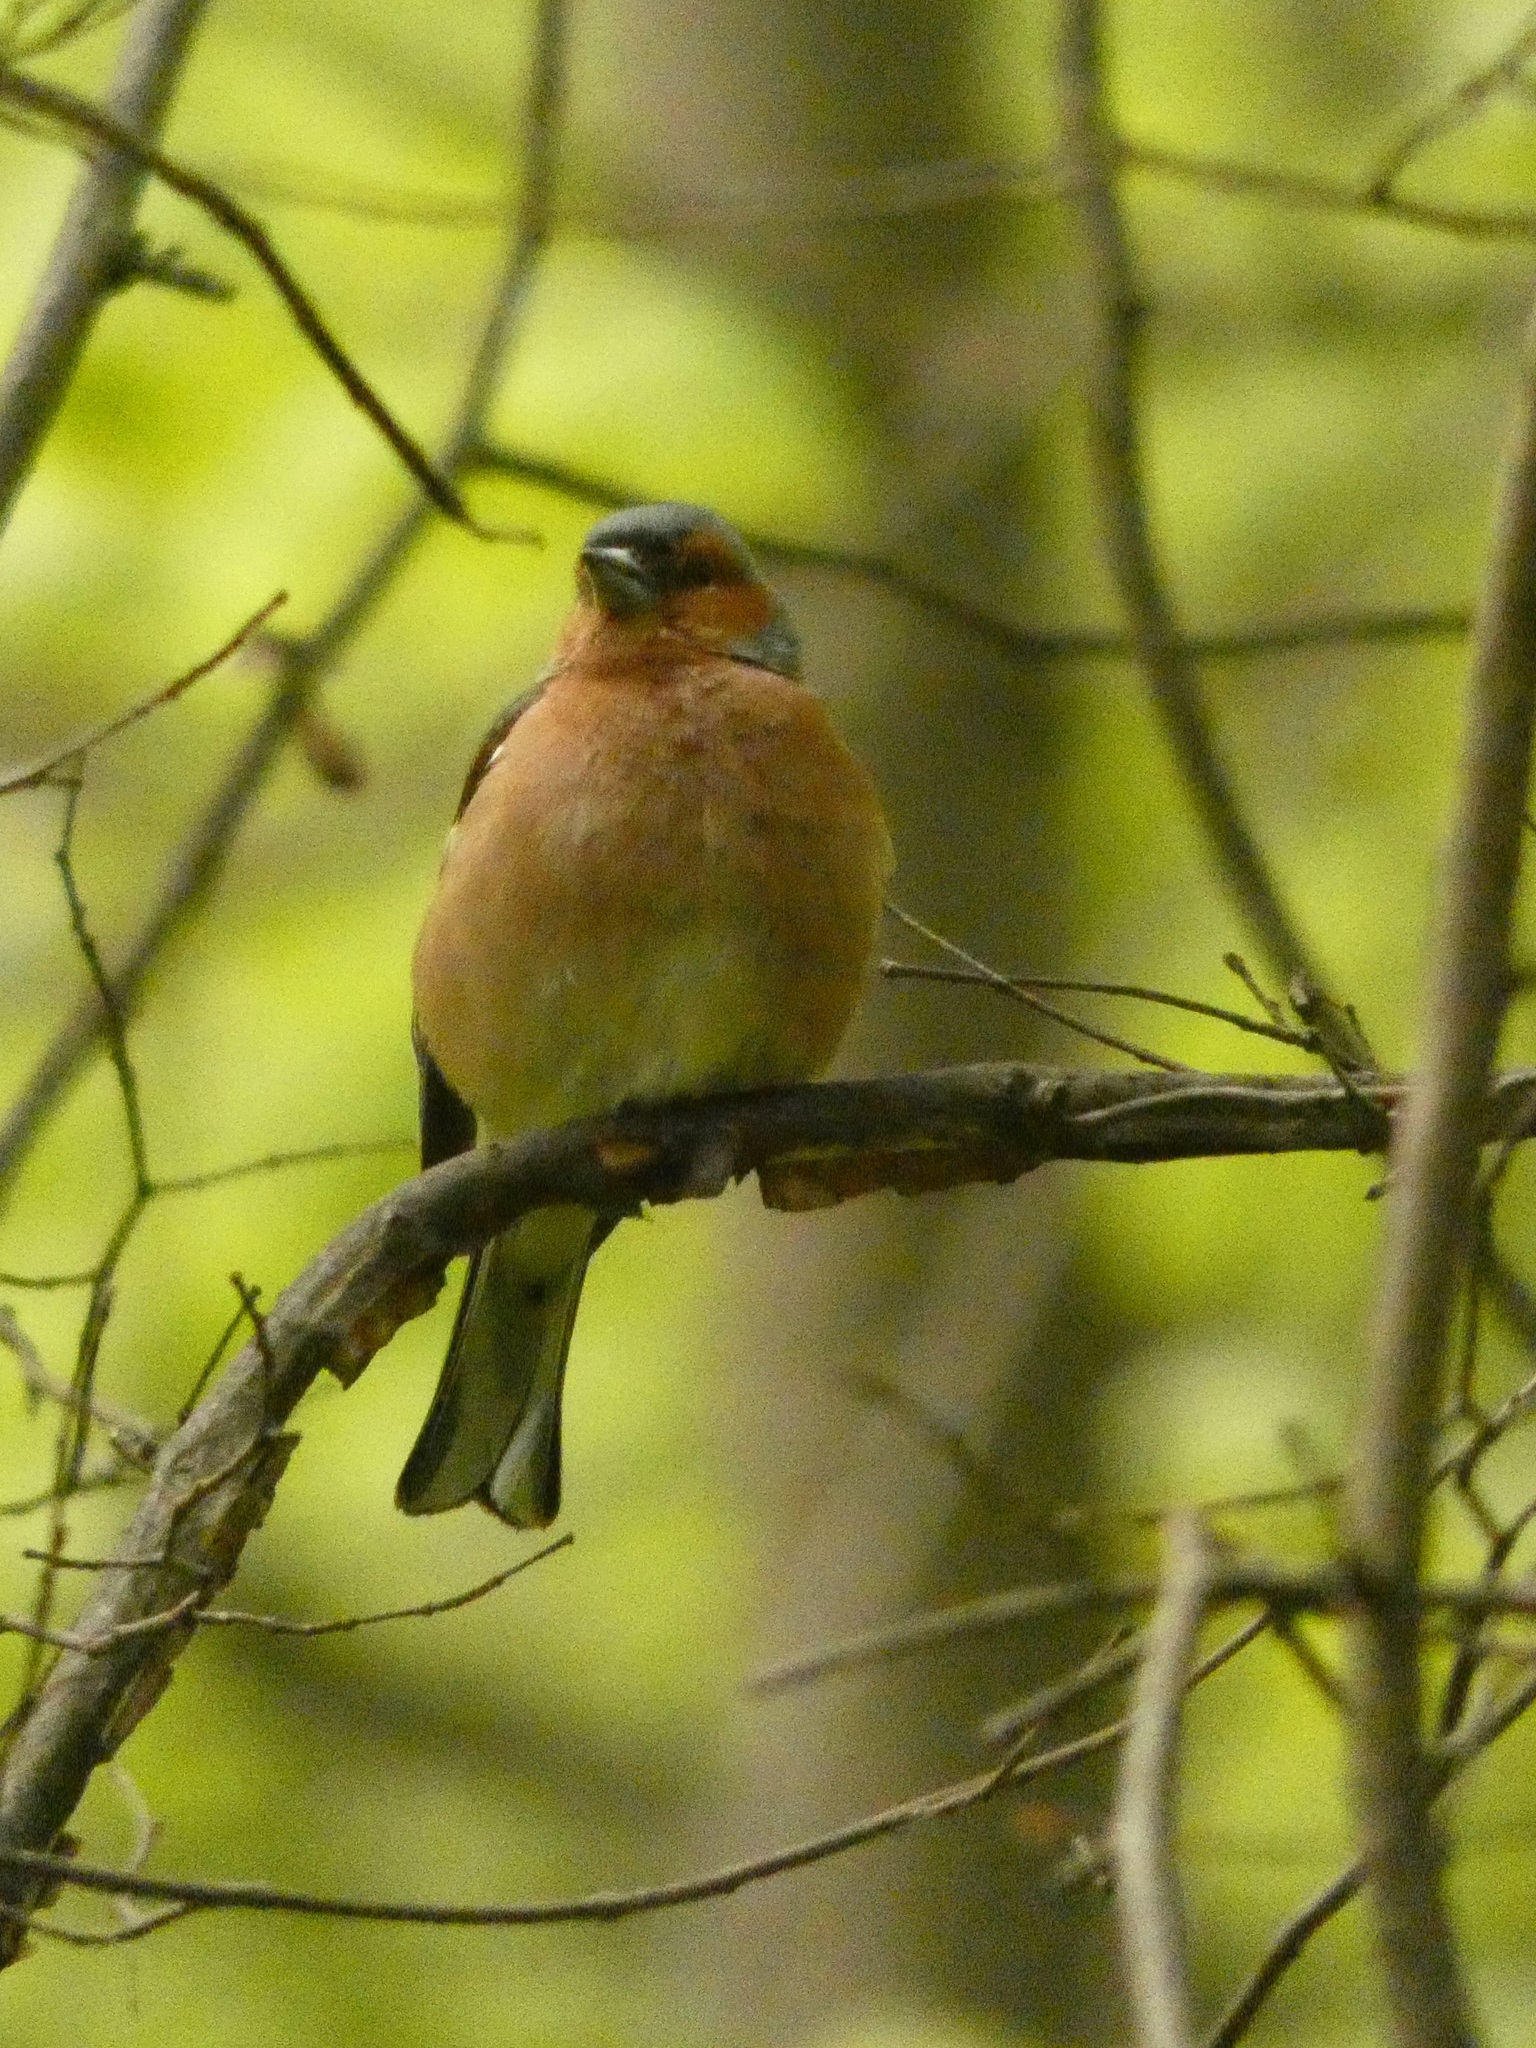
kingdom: Animalia
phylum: Chordata
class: Aves
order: Passeriformes
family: Fringillidae
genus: Fringilla
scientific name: Fringilla coelebs
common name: Common chaffinch
